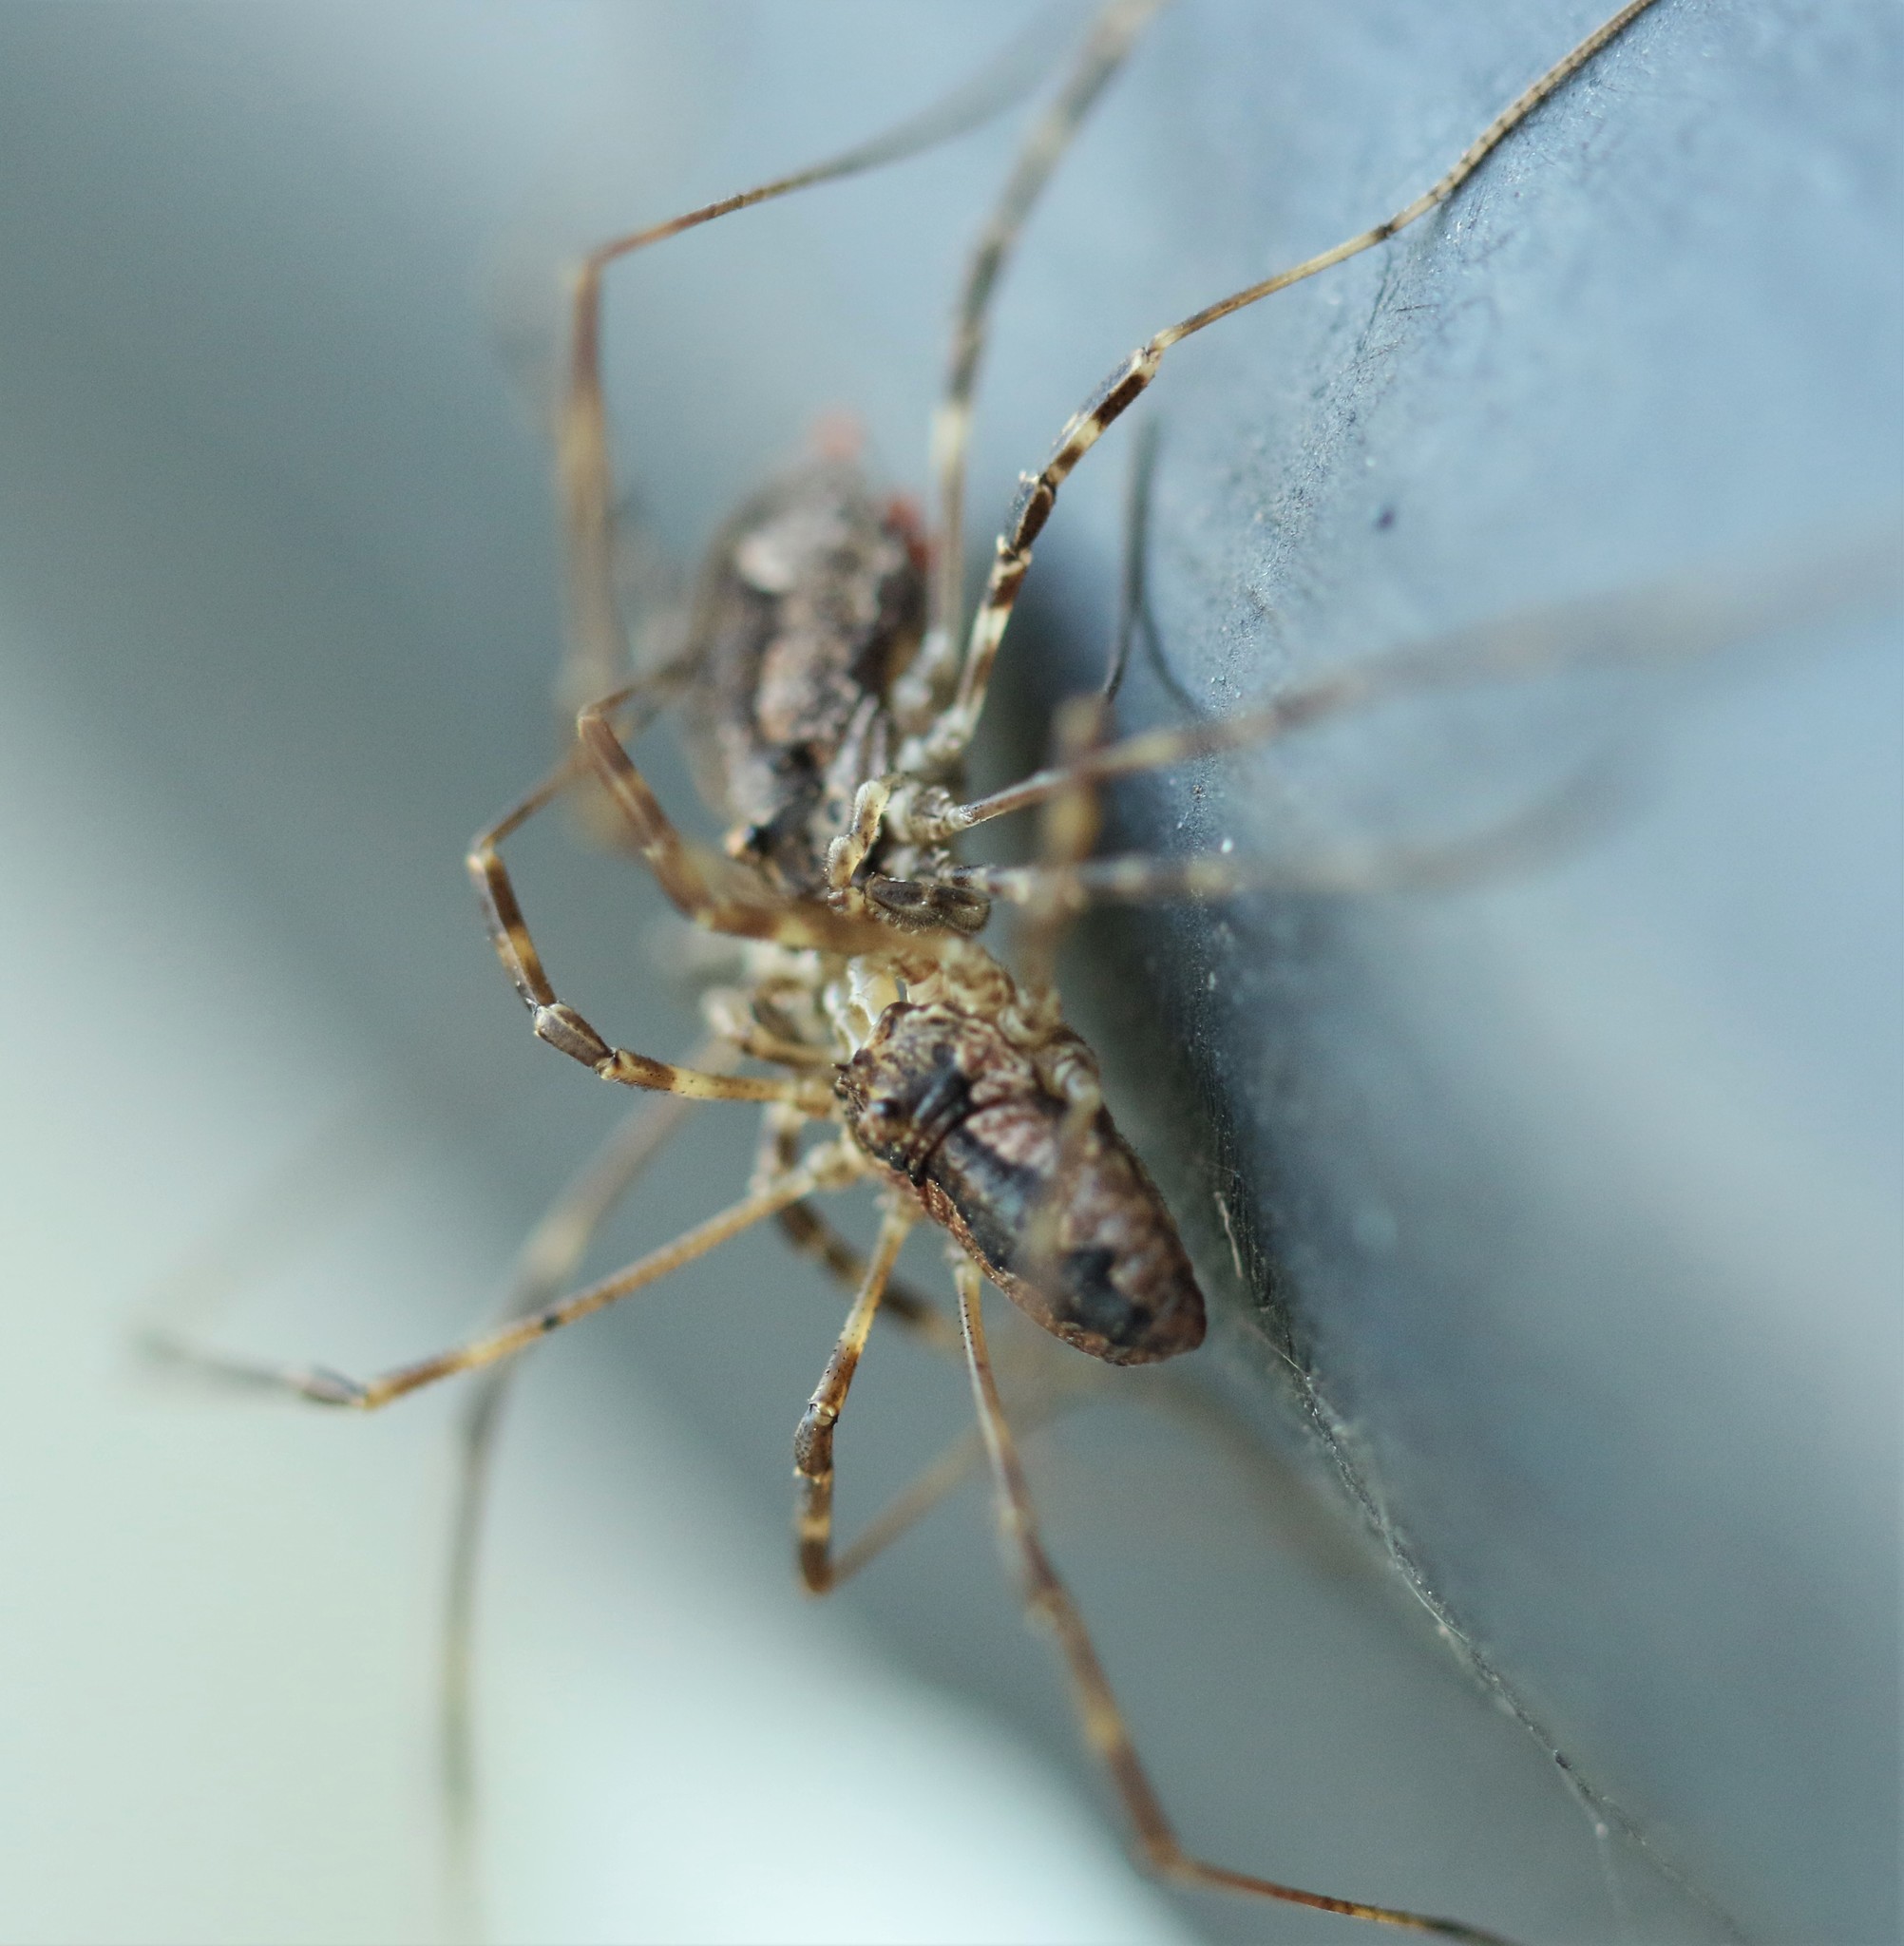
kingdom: Animalia
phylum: Arthropoda
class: Arachnida
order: Opiliones
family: Phalangiidae
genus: Odiellus
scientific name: Odiellus pictus
